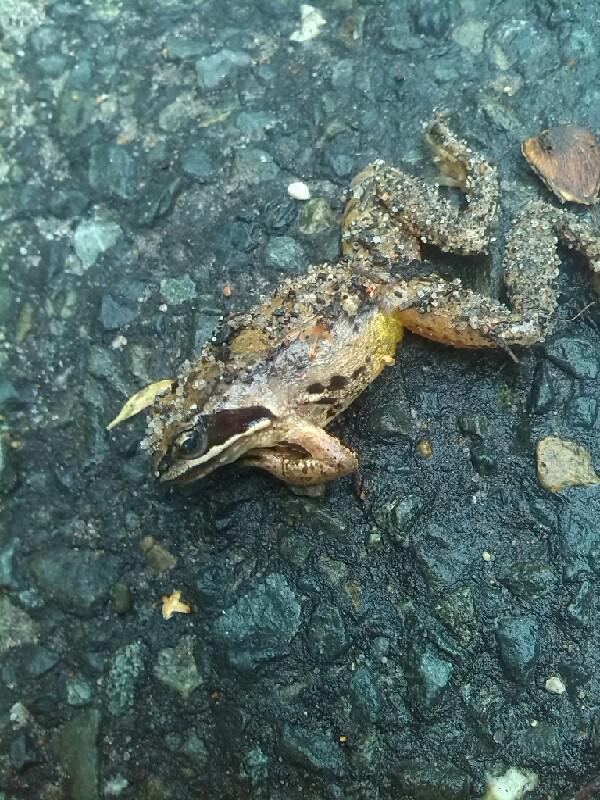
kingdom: Animalia
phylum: Chordata
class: Amphibia
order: Anura
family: Ranidae
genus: Rana
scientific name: Rana arvalis
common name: Moor frog
